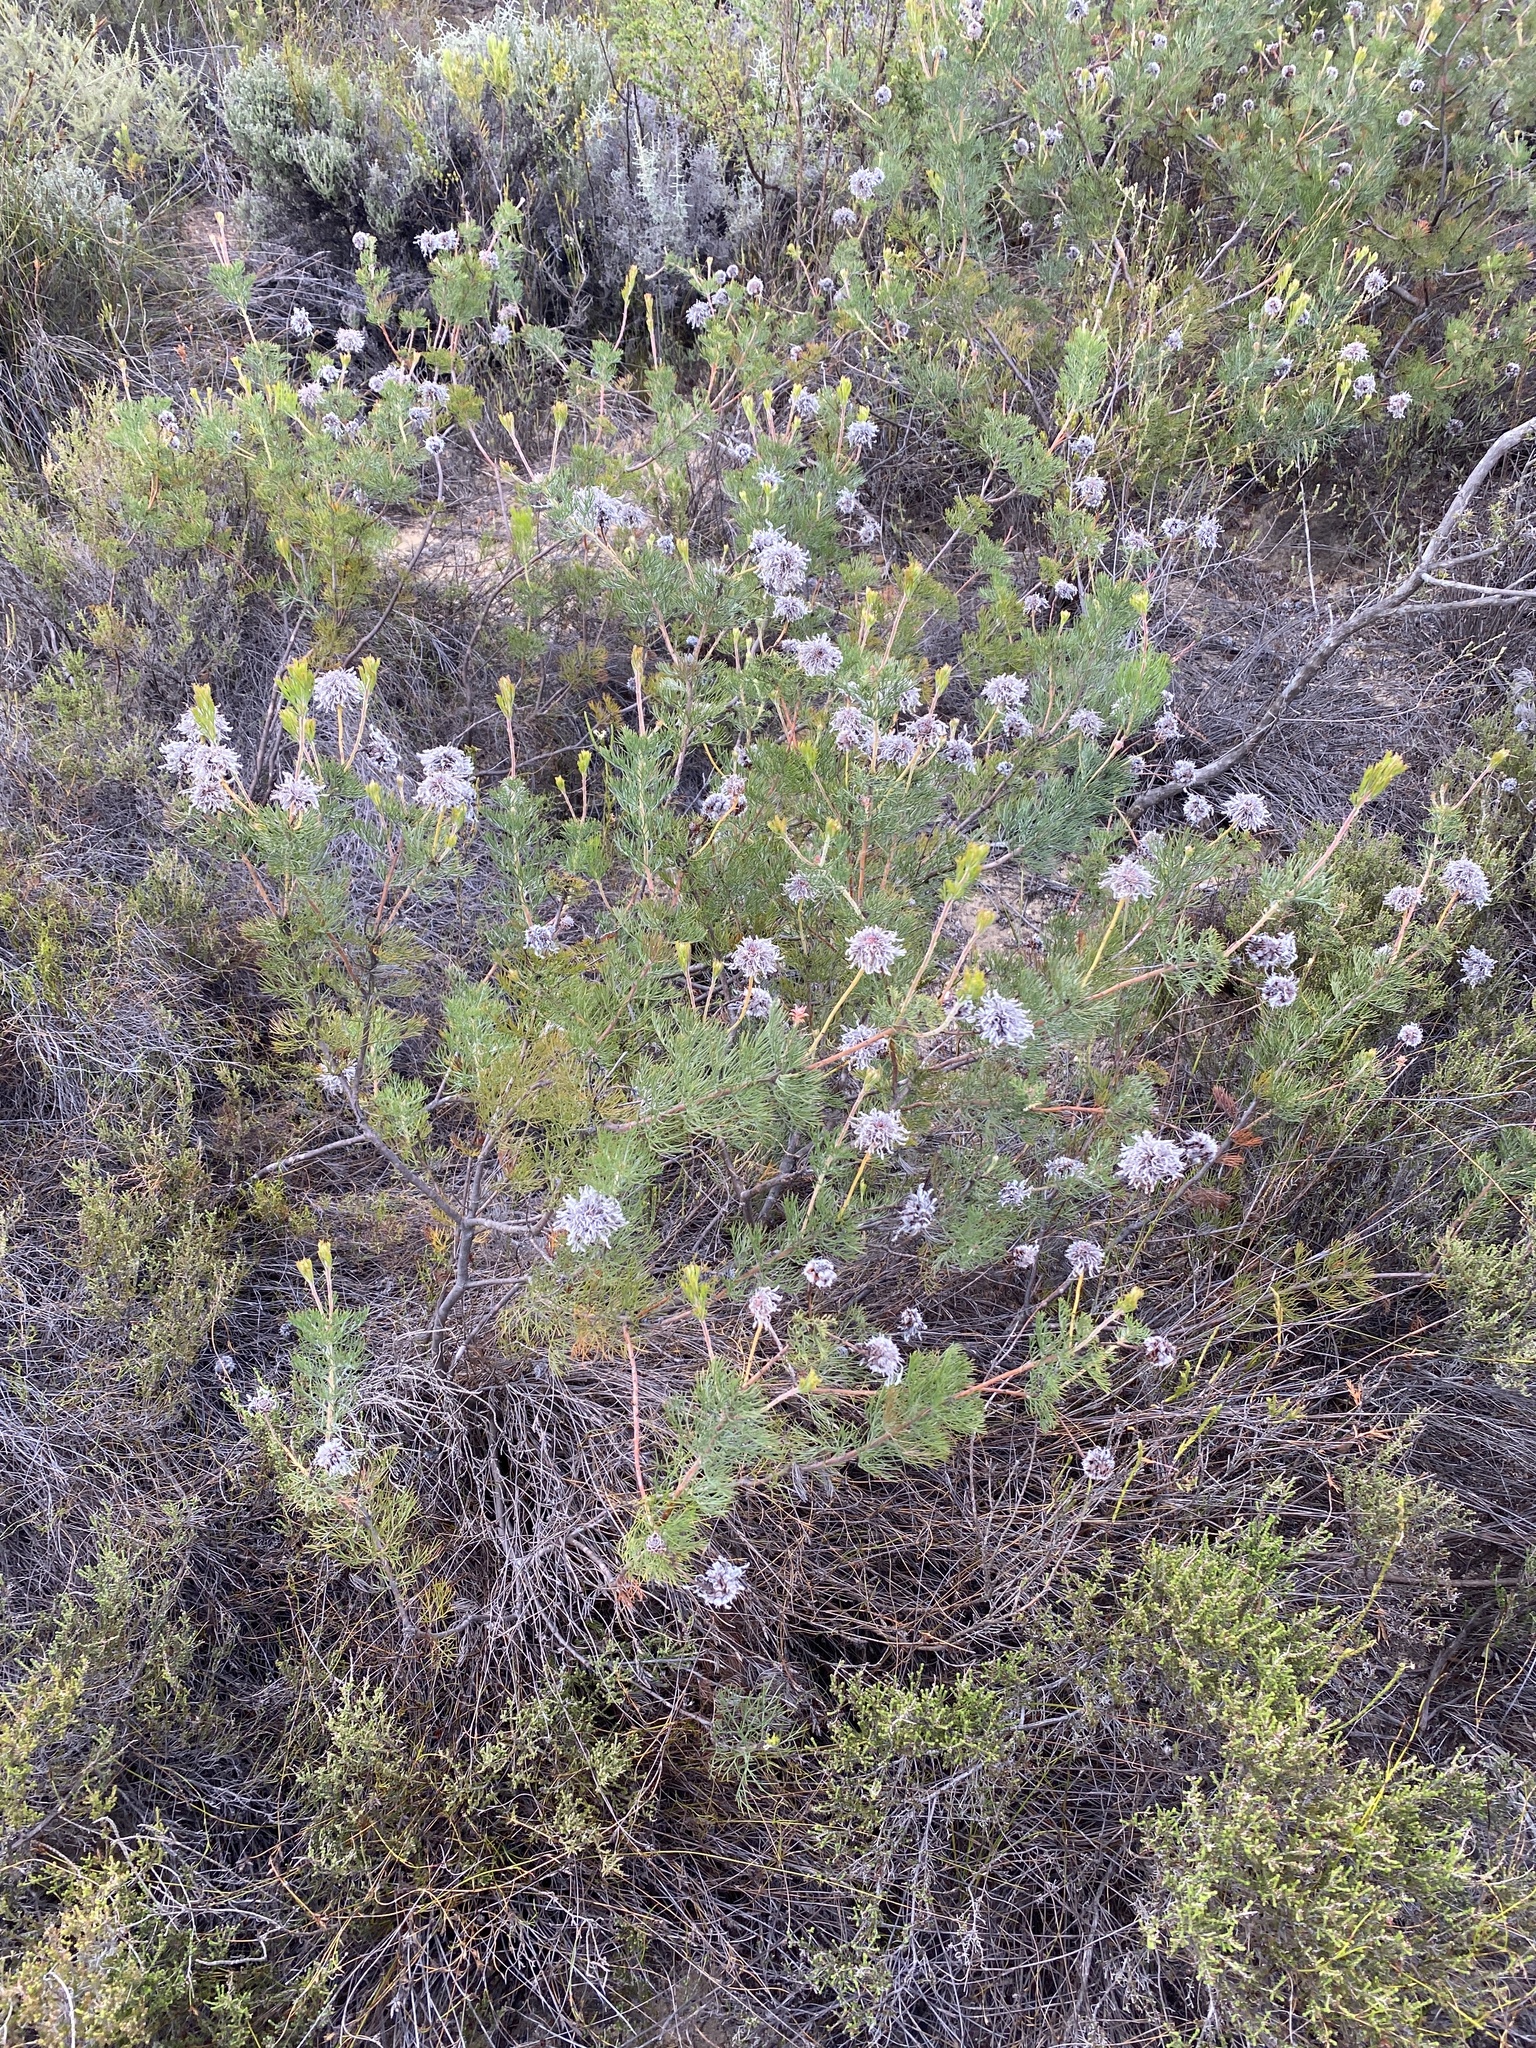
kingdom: Plantae
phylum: Tracheophyta
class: Magnoliopsida
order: Proteales
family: Proteaceae
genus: Serruria
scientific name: Serruria pedunculata
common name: Fan-leaf spiderhead
